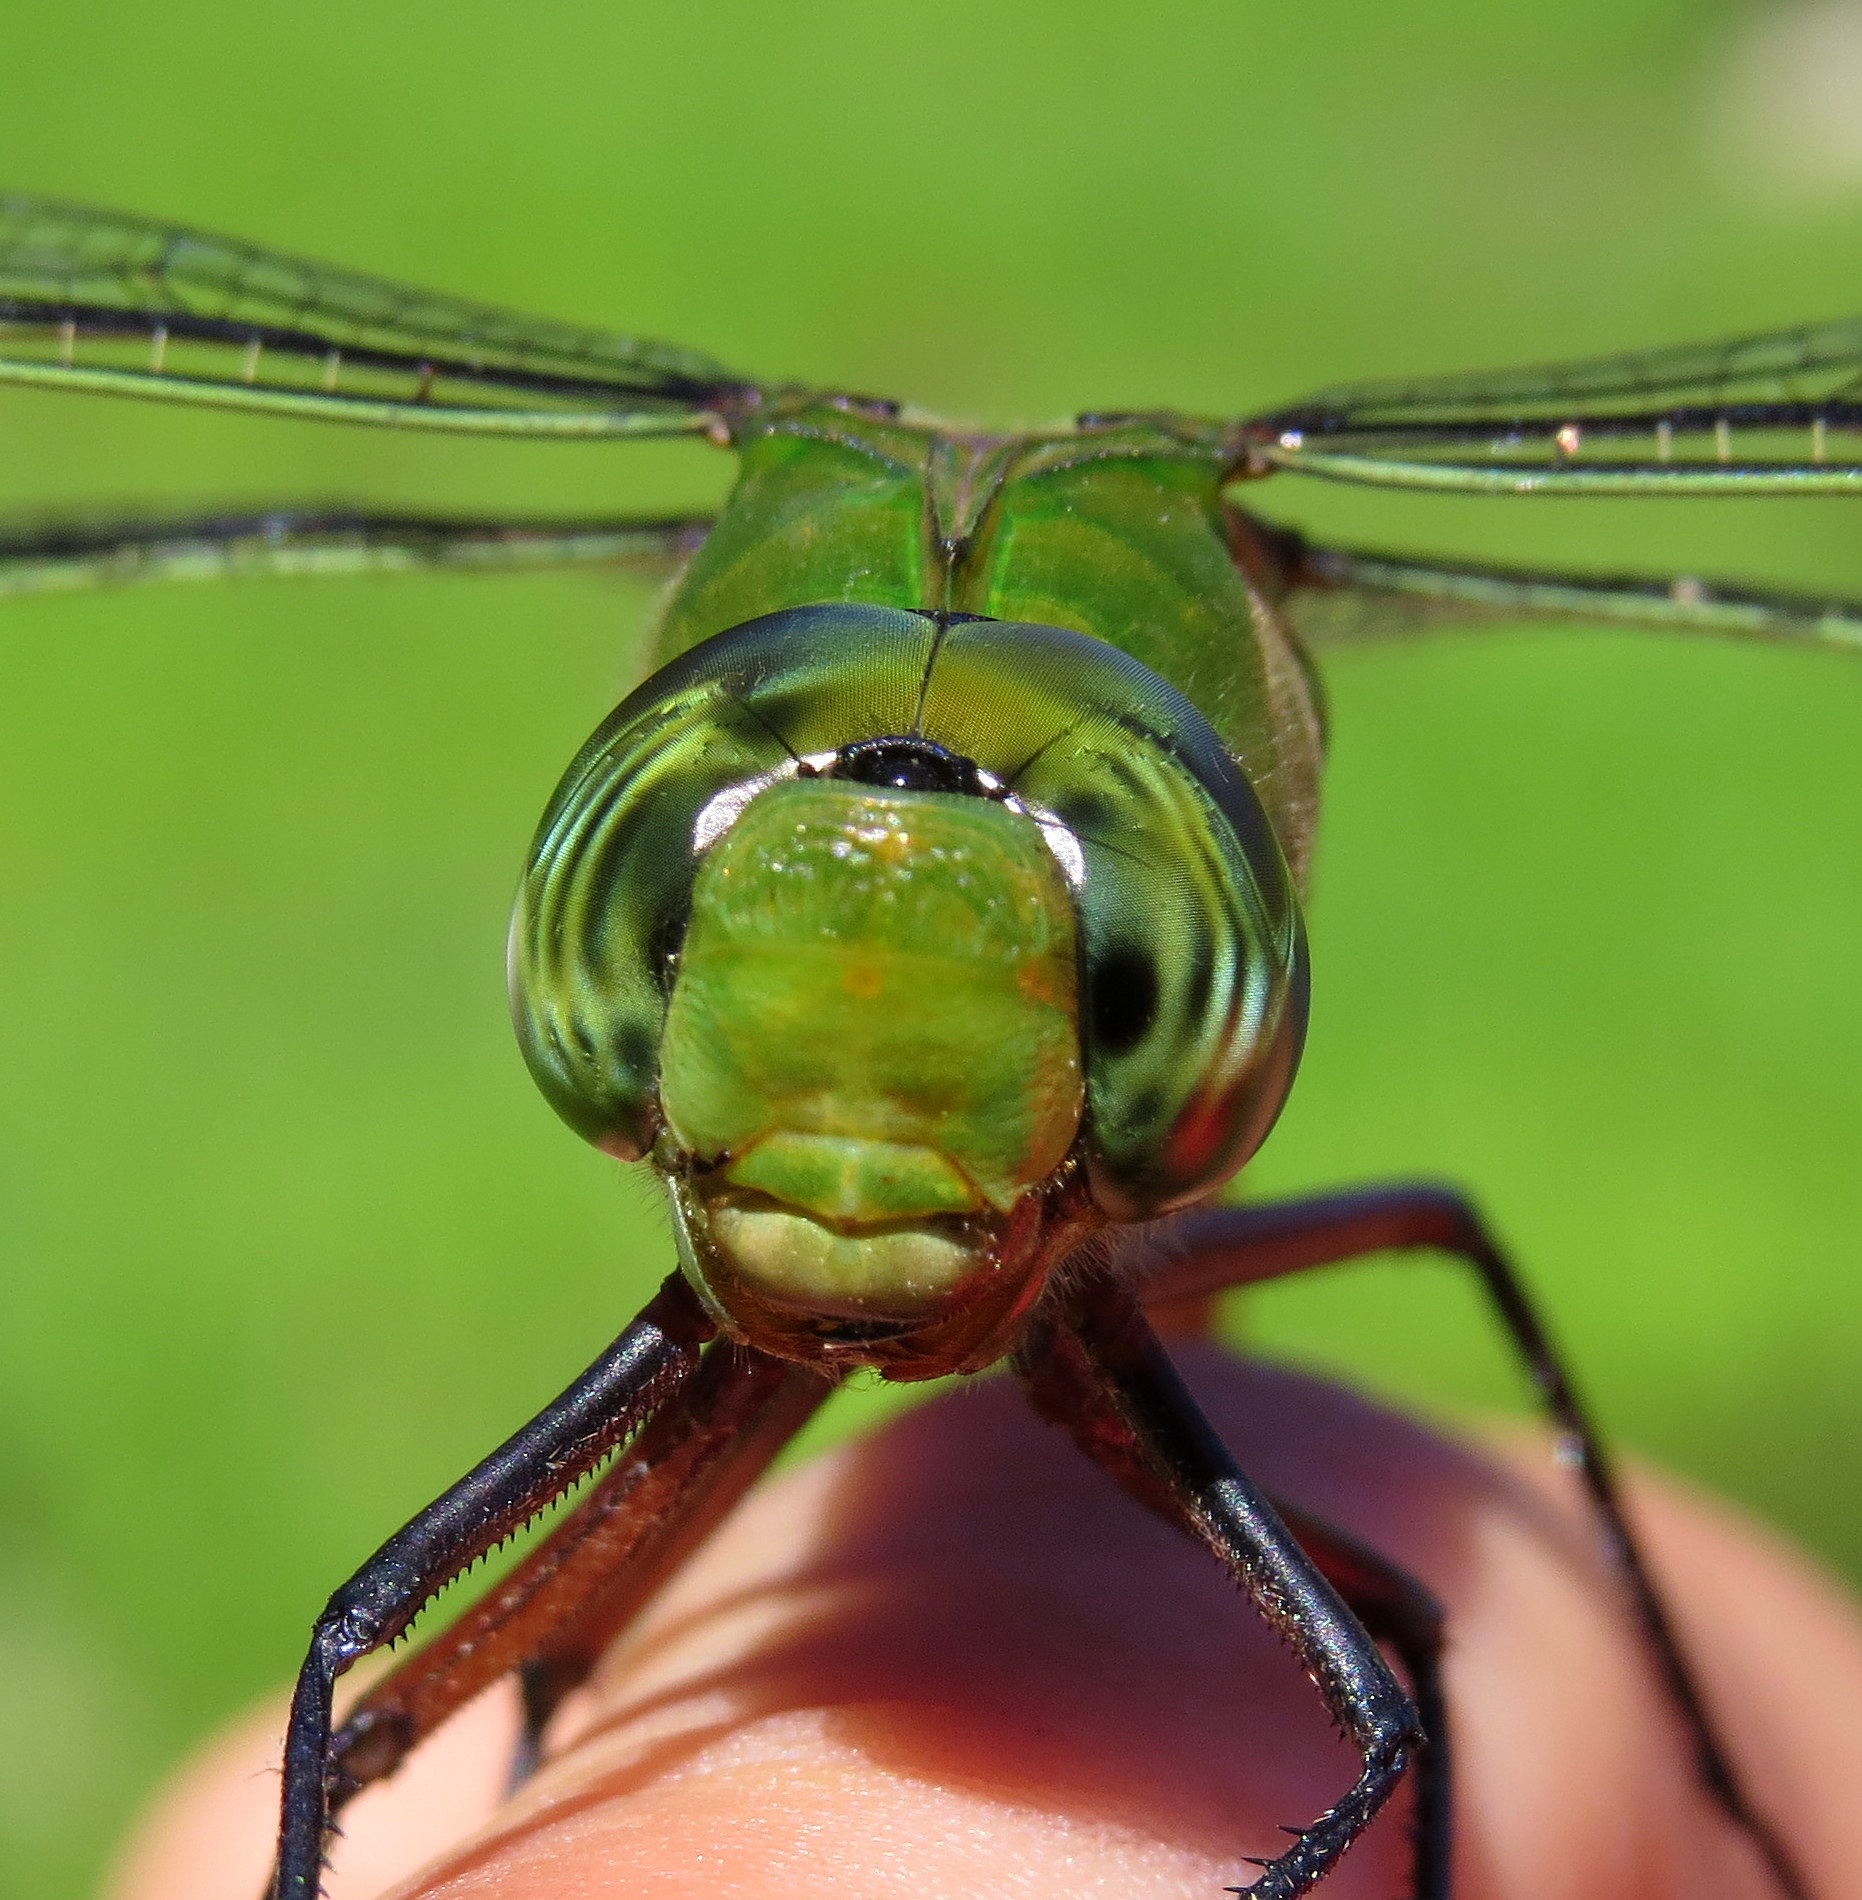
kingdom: Animalia
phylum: Arthropoda
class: Insecta
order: Odonata
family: Aeshnidae
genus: Anax
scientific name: Anax longipes
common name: Comet darner
